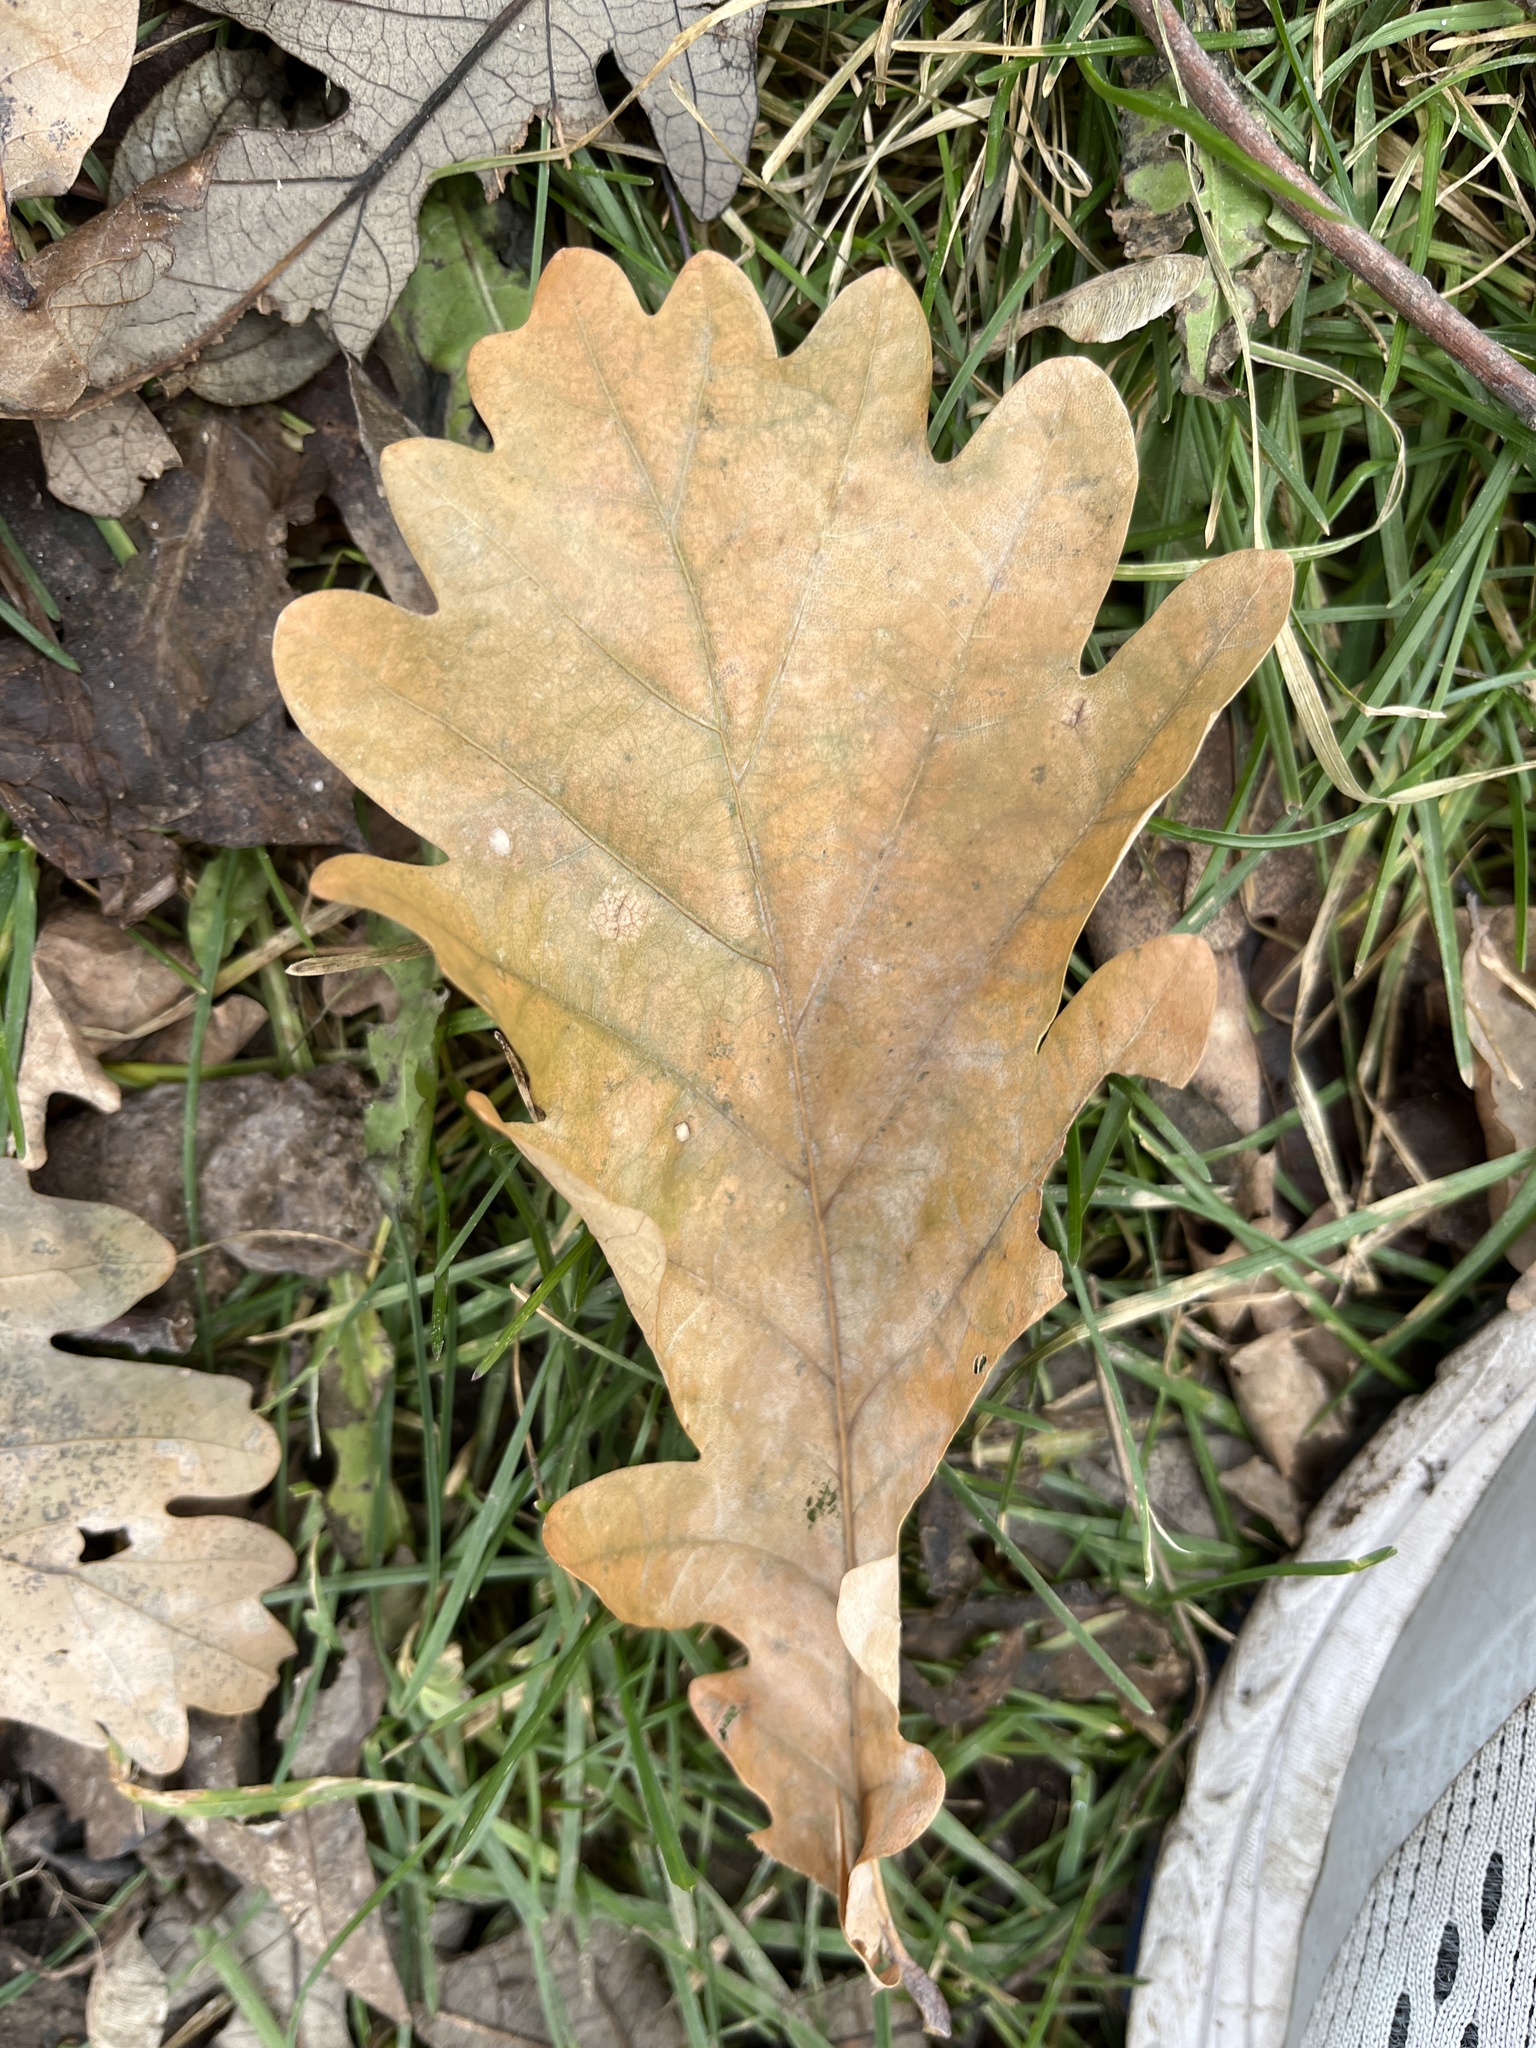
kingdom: Plantae
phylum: Tracheophyta
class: Magnoliopsida
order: Fagales
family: Fagaceae
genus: Quercus
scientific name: Quercus robur
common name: Pedunculate oak
